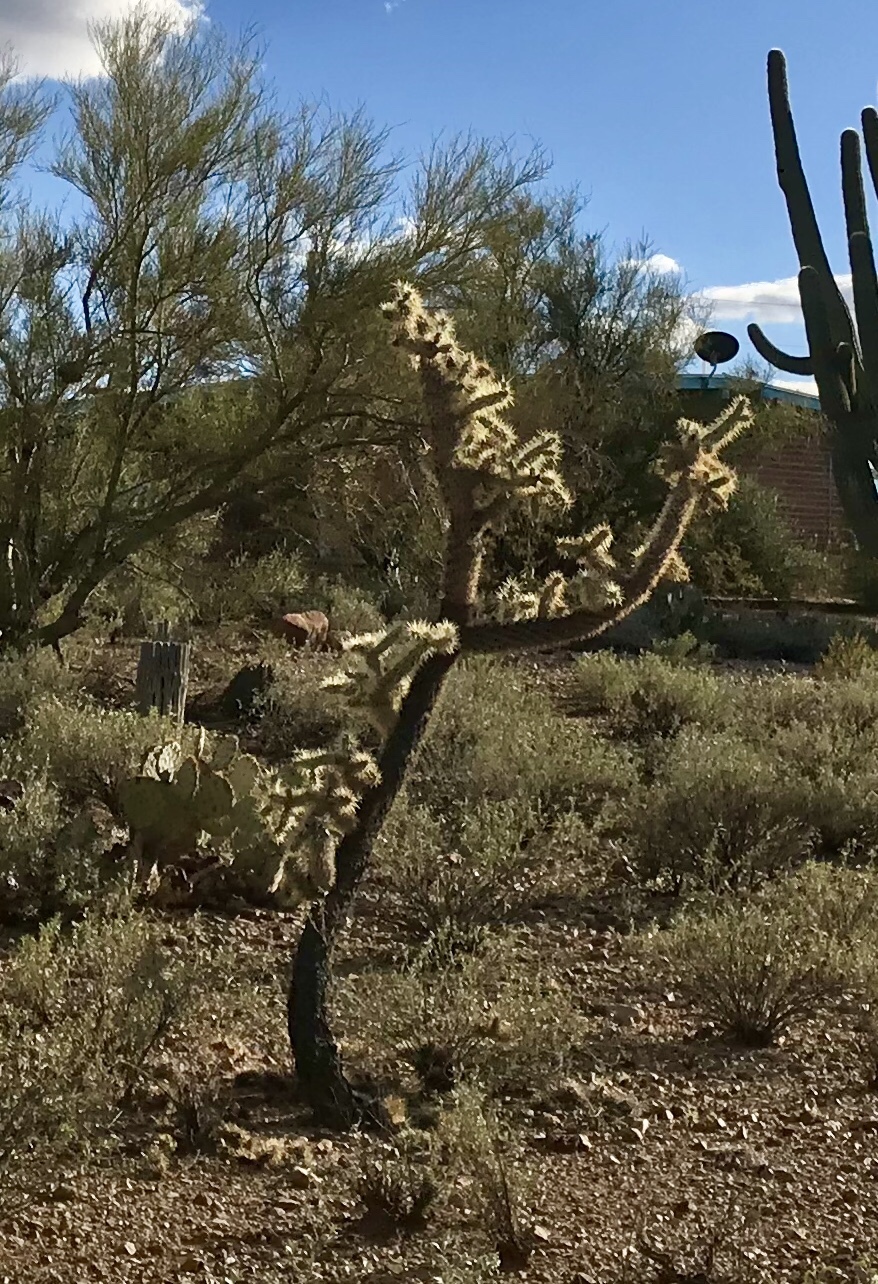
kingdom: Plantae
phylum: Tracheophyta
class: Magnoliopsida
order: Caryophyllales
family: Cactaceae
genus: Cylindropuntia
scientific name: Cylindropuntia fulgida
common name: Jumping cholla
